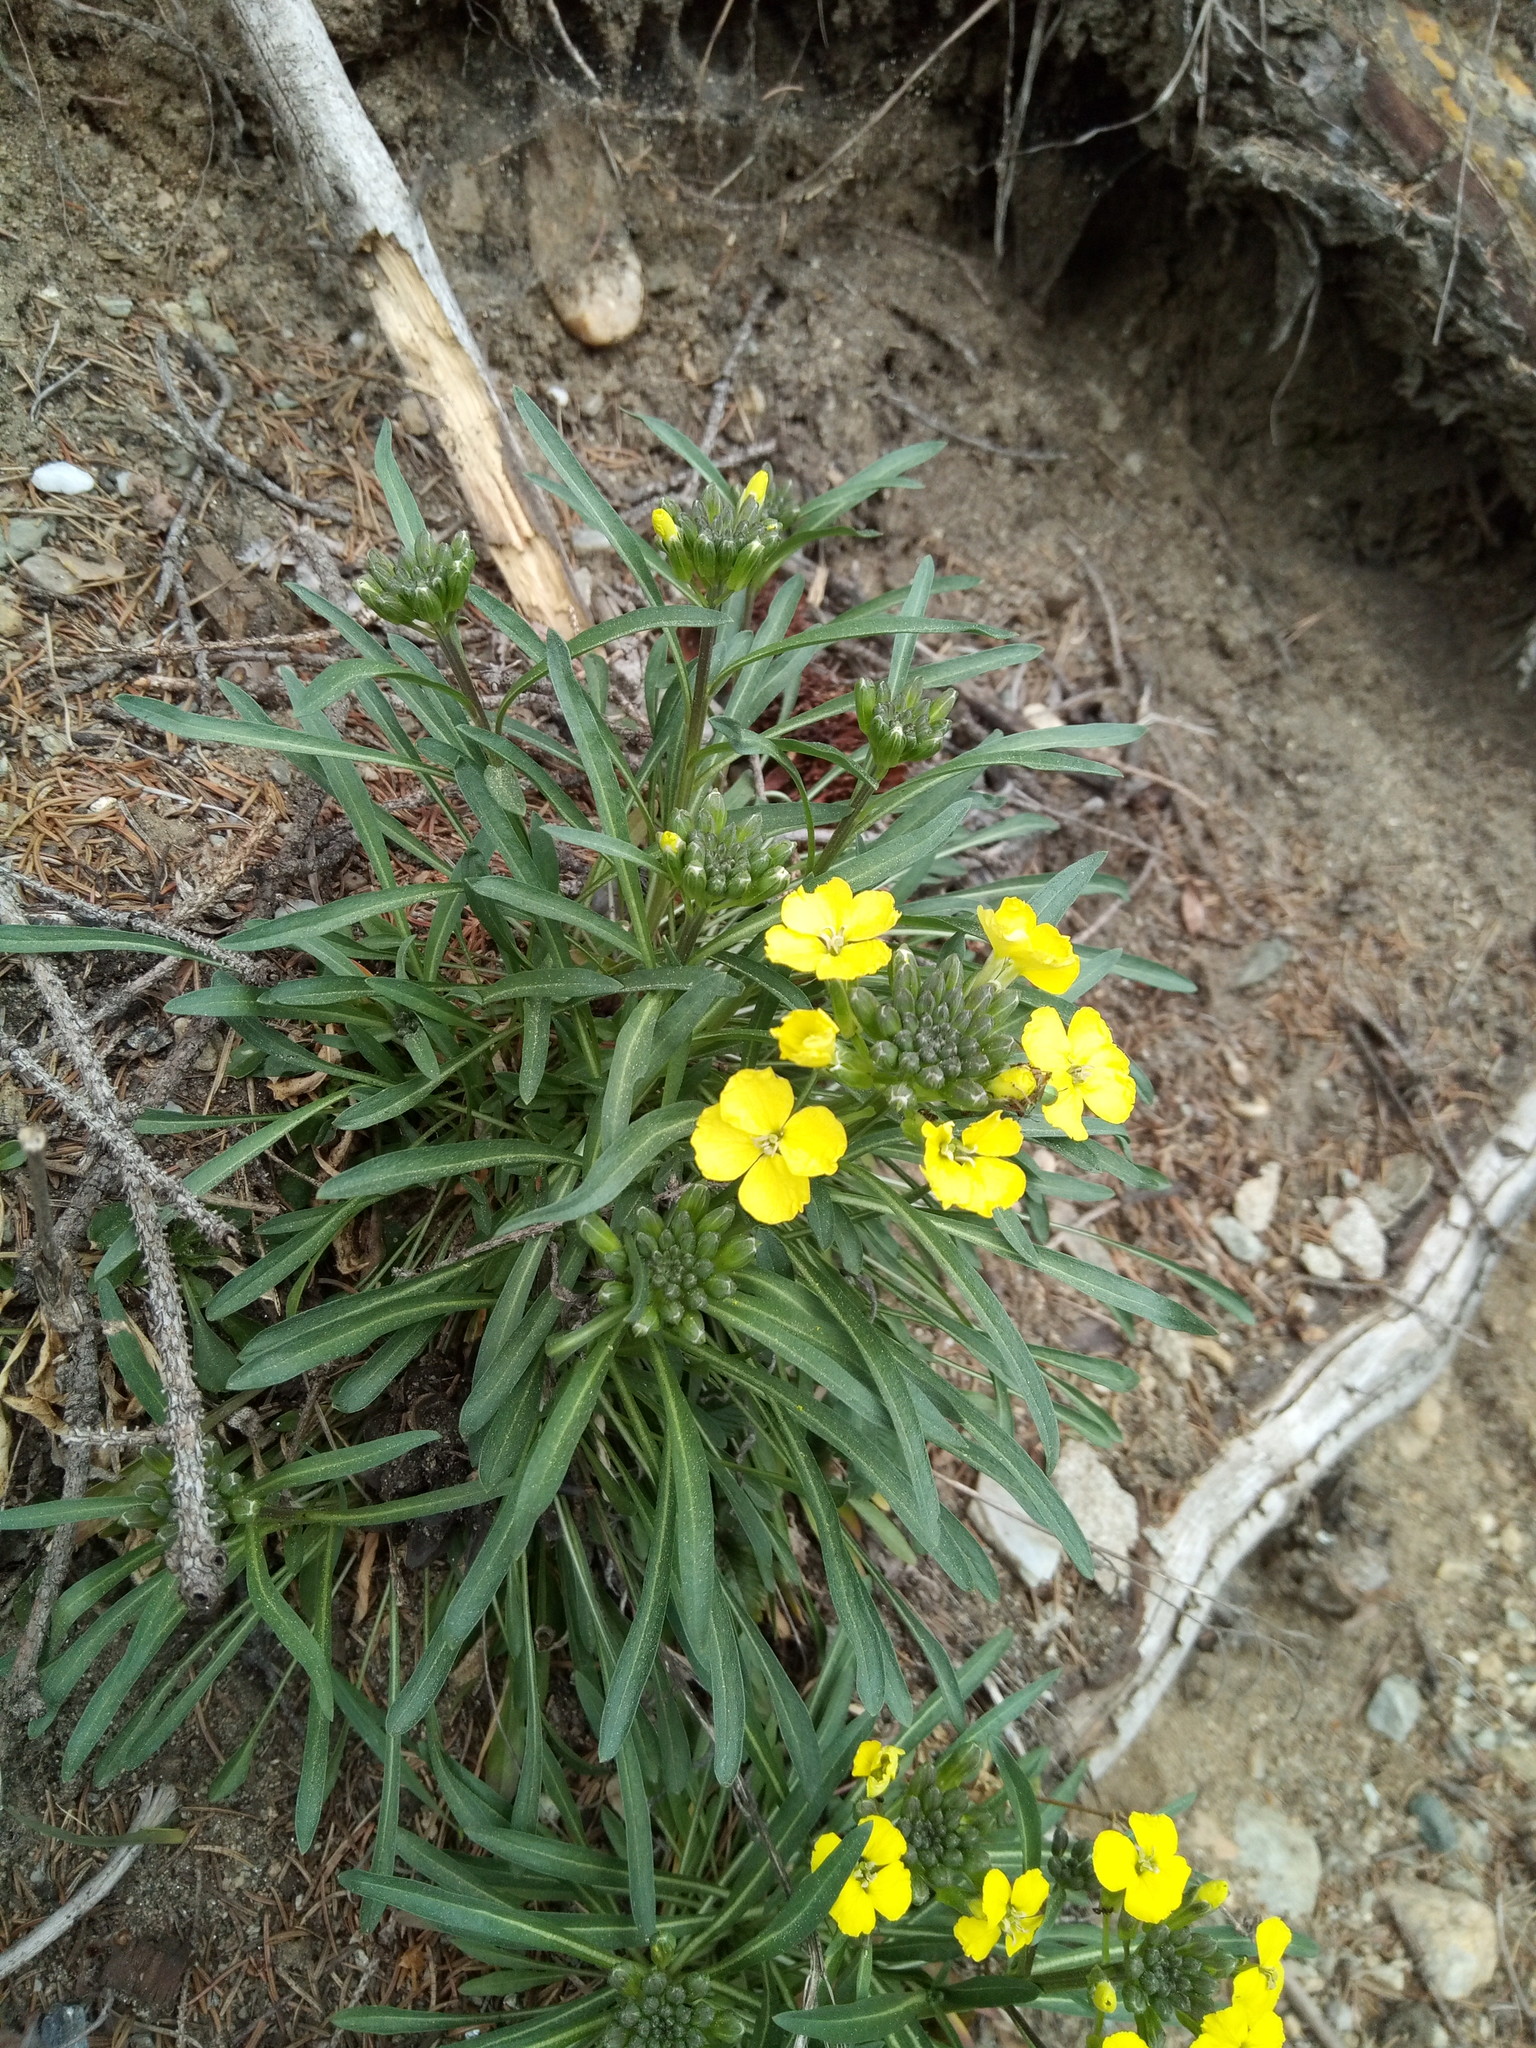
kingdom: Plantae
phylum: Tracheophyta
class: Magnoliopsida
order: Brassicales
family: Brassicaceae
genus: Erysimum
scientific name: Erysimum sylvestre
